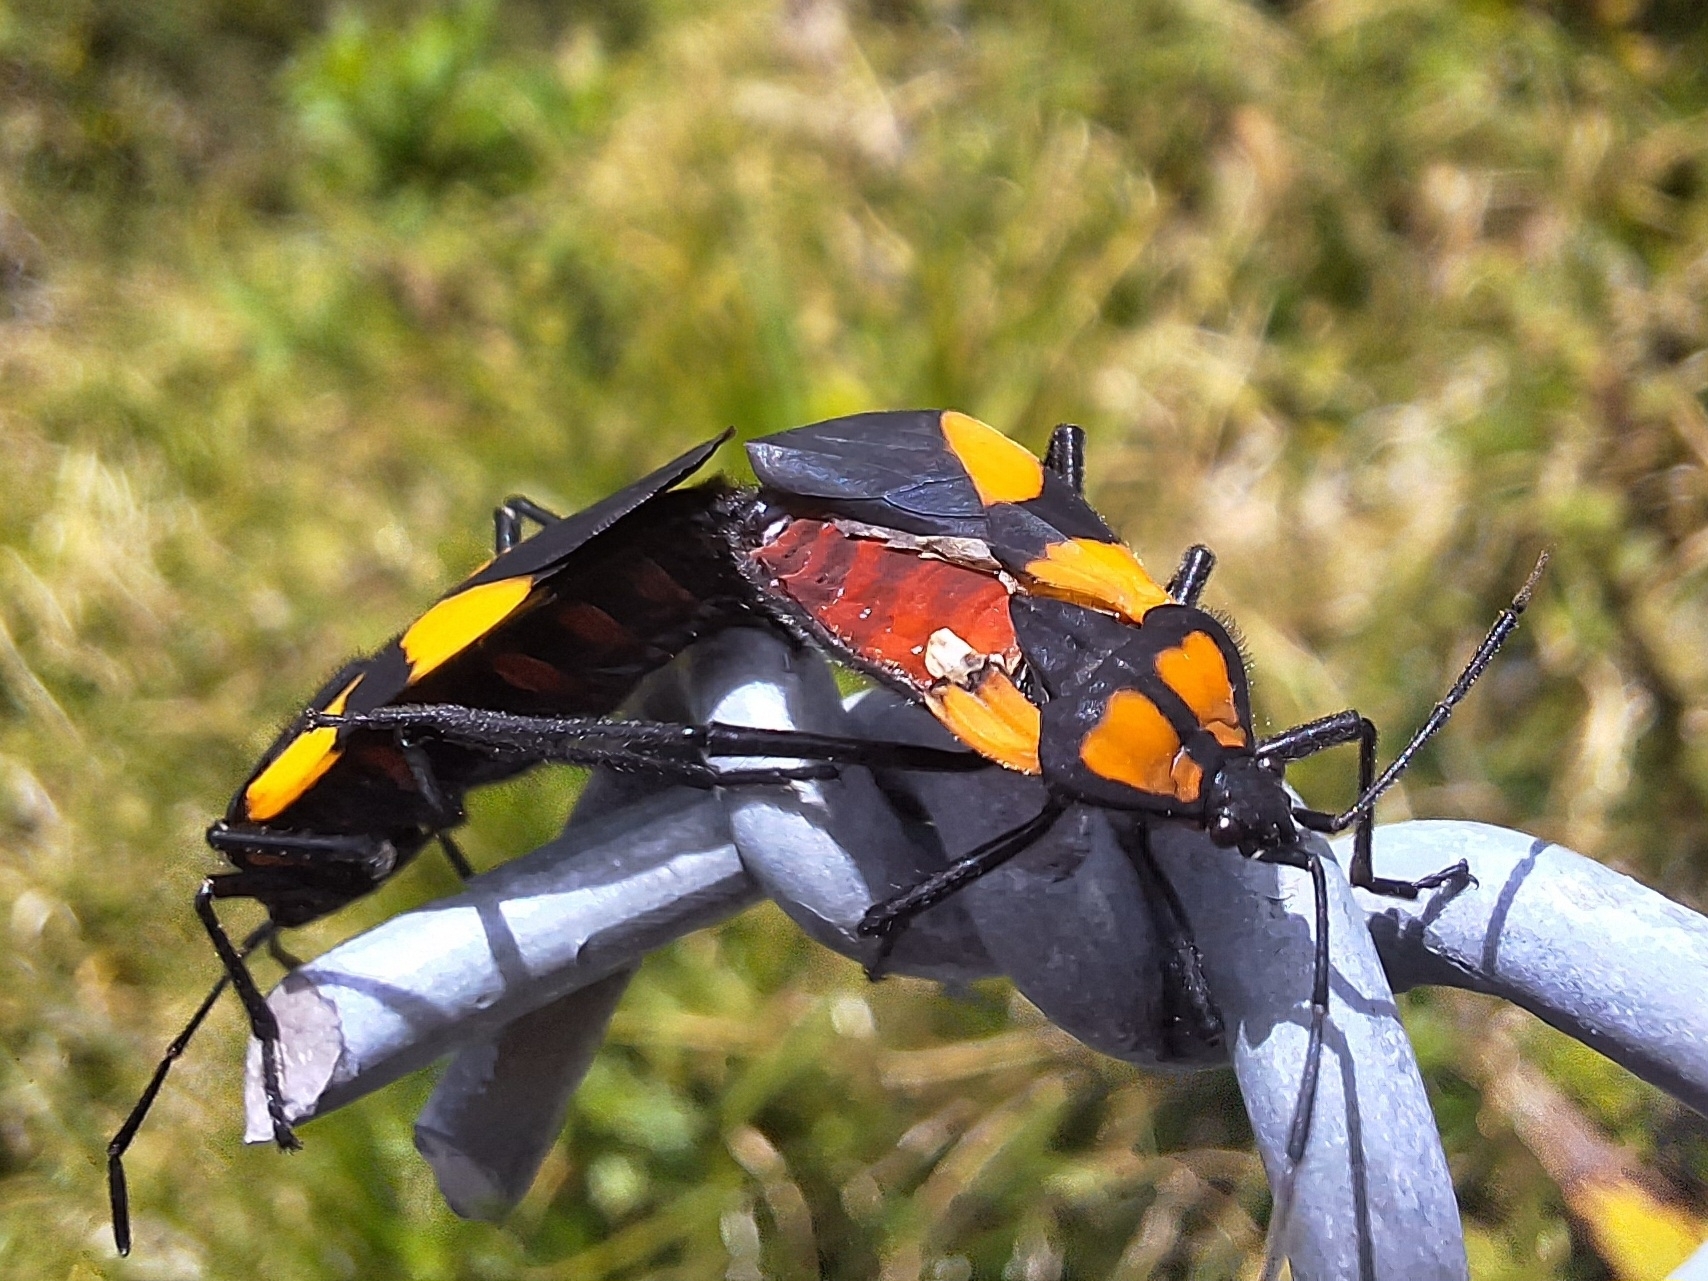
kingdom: Animalia
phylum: Arthropoda
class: Insecta
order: Hemiptera
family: Lygaeidae
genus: Oncopeltus
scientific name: Oncopeltus orourkeae
